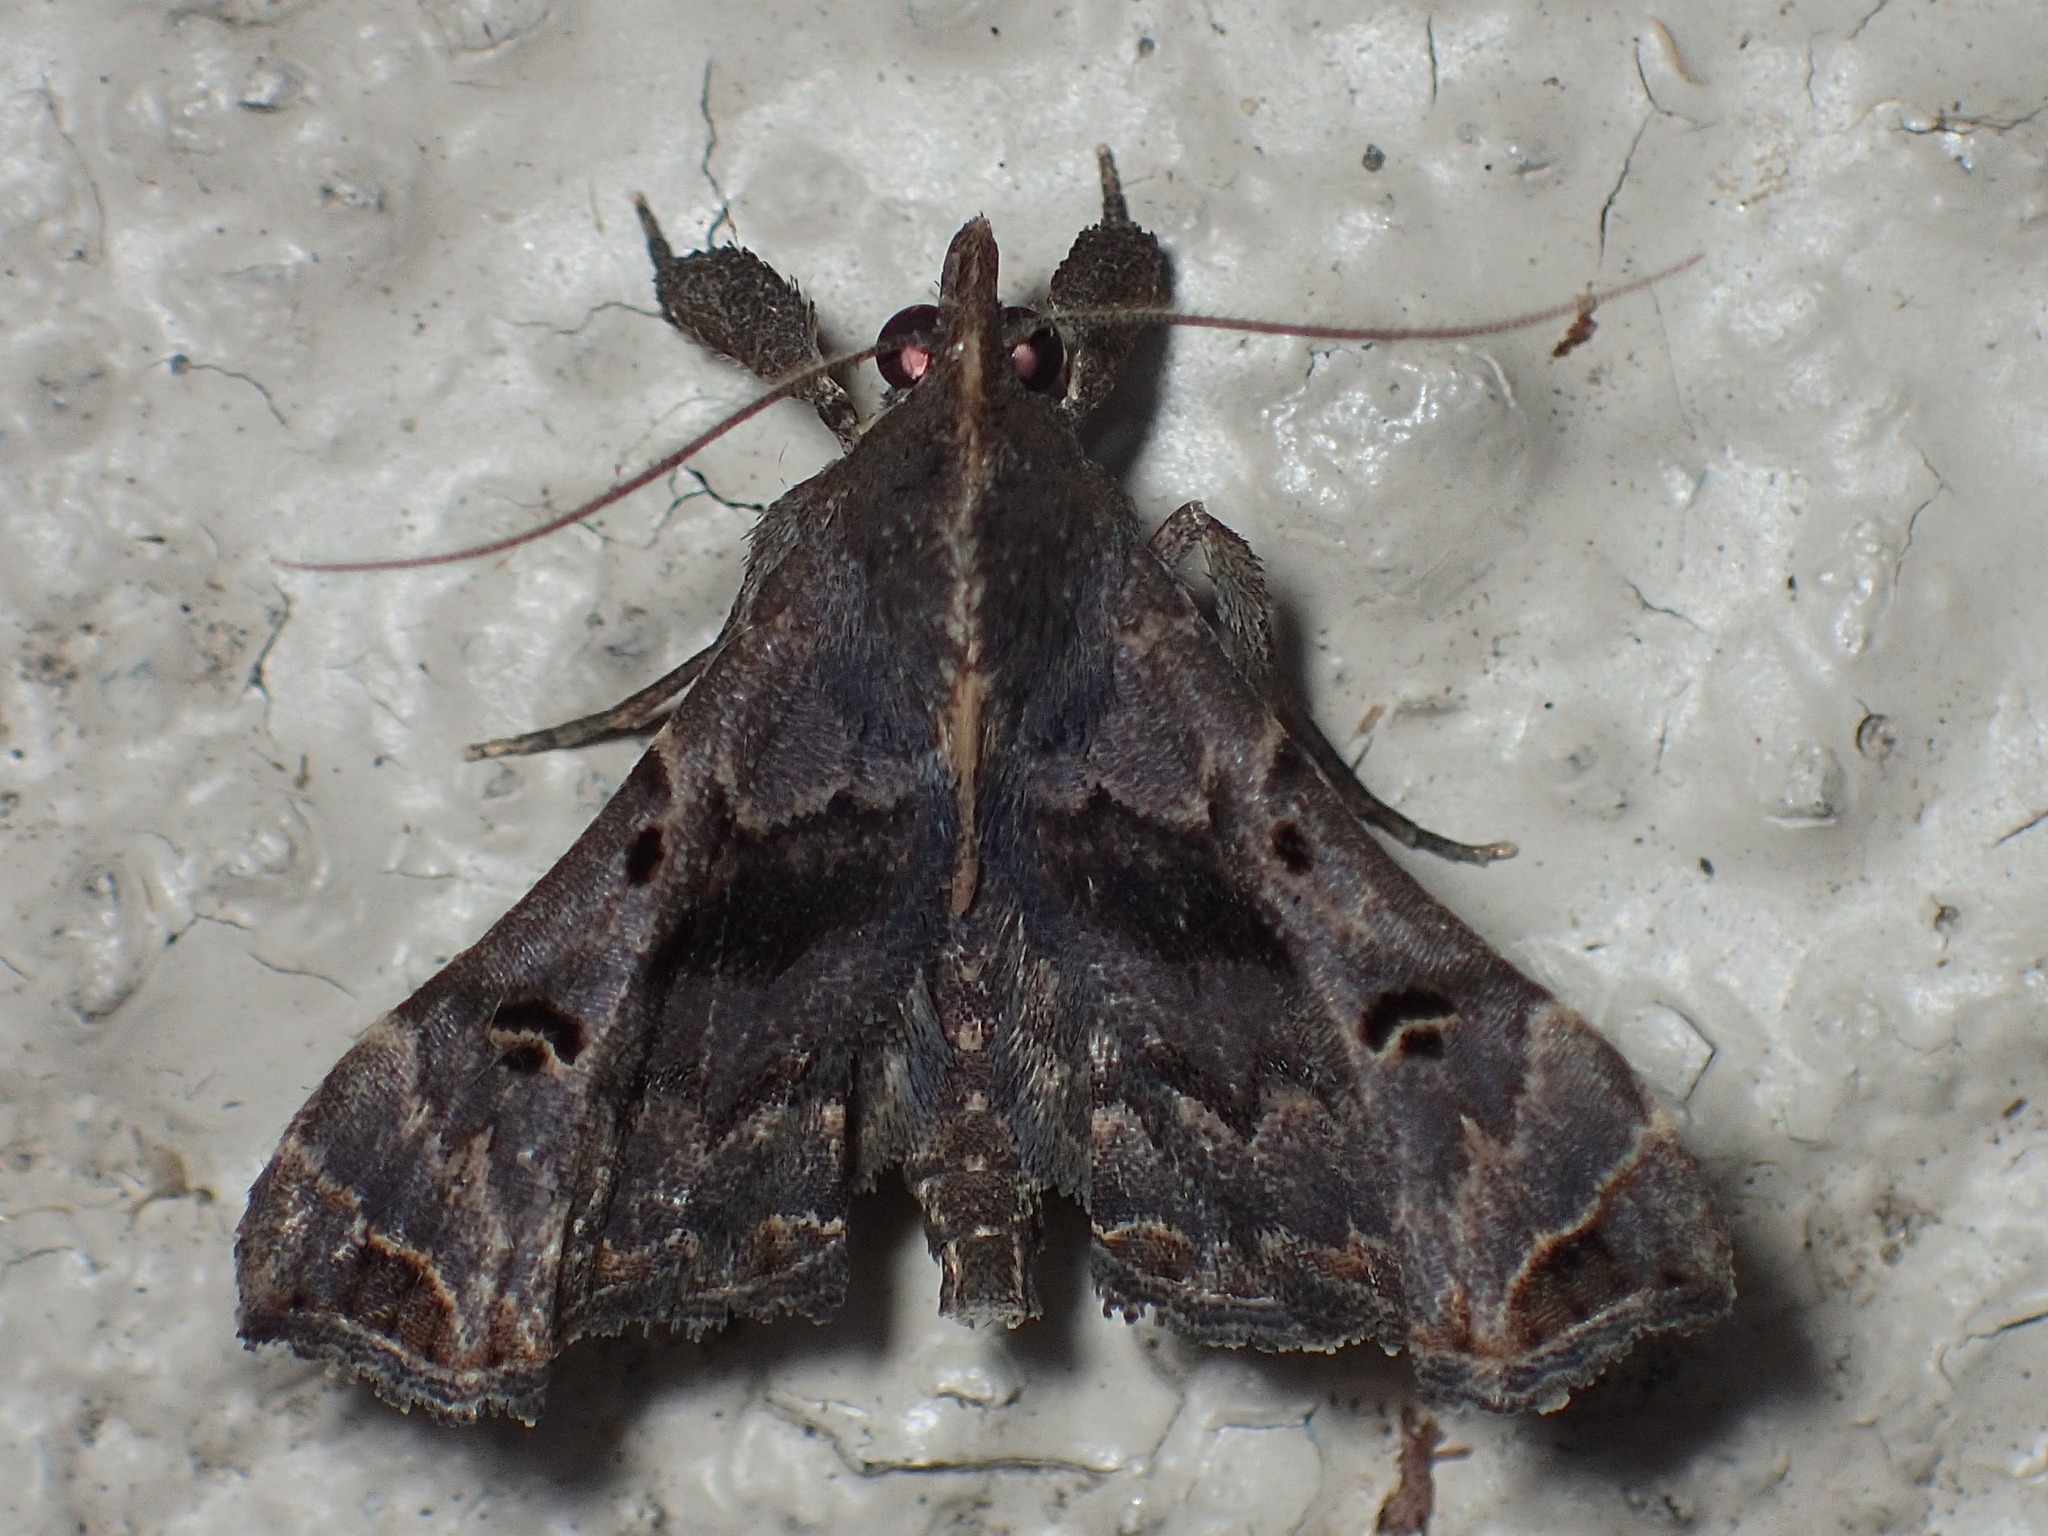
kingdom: Animalia
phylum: Arthropoda
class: Insecta
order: Lepidoptera
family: Erebidae
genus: Palthis
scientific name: Palthis asopialis
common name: Faint-spotted palthis moth
